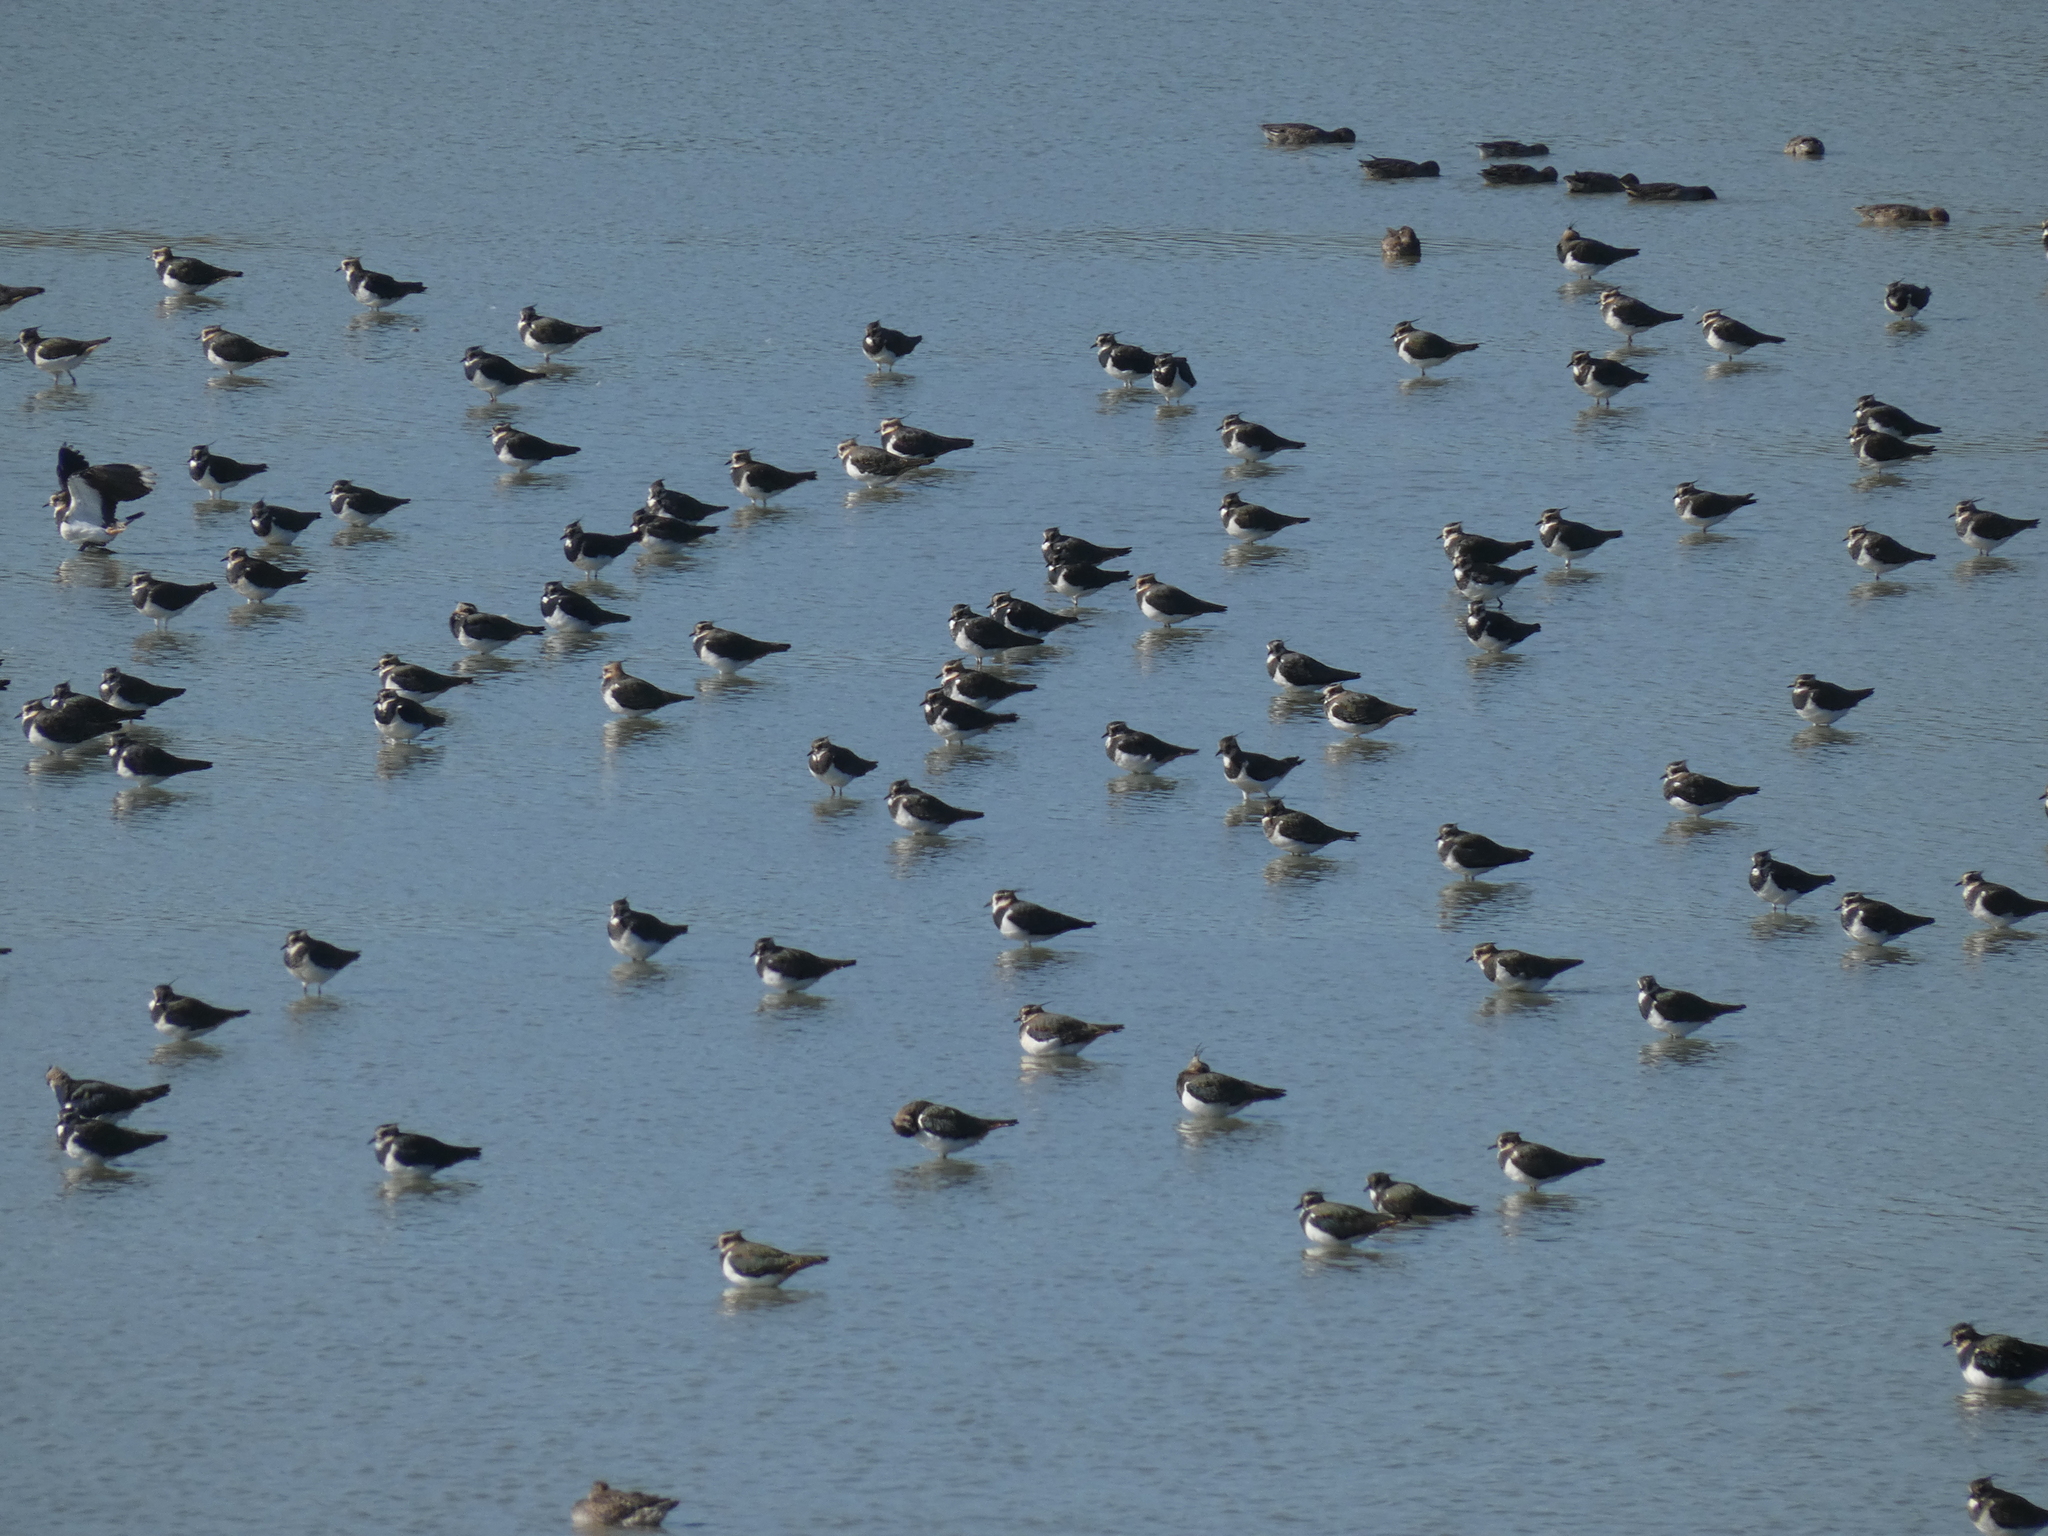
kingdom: Animalia
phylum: Chordata
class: Aves
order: Charadriiformes
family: Charadriidae
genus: Vanellus
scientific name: Vanellus vanellus
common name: Northern lapwing
